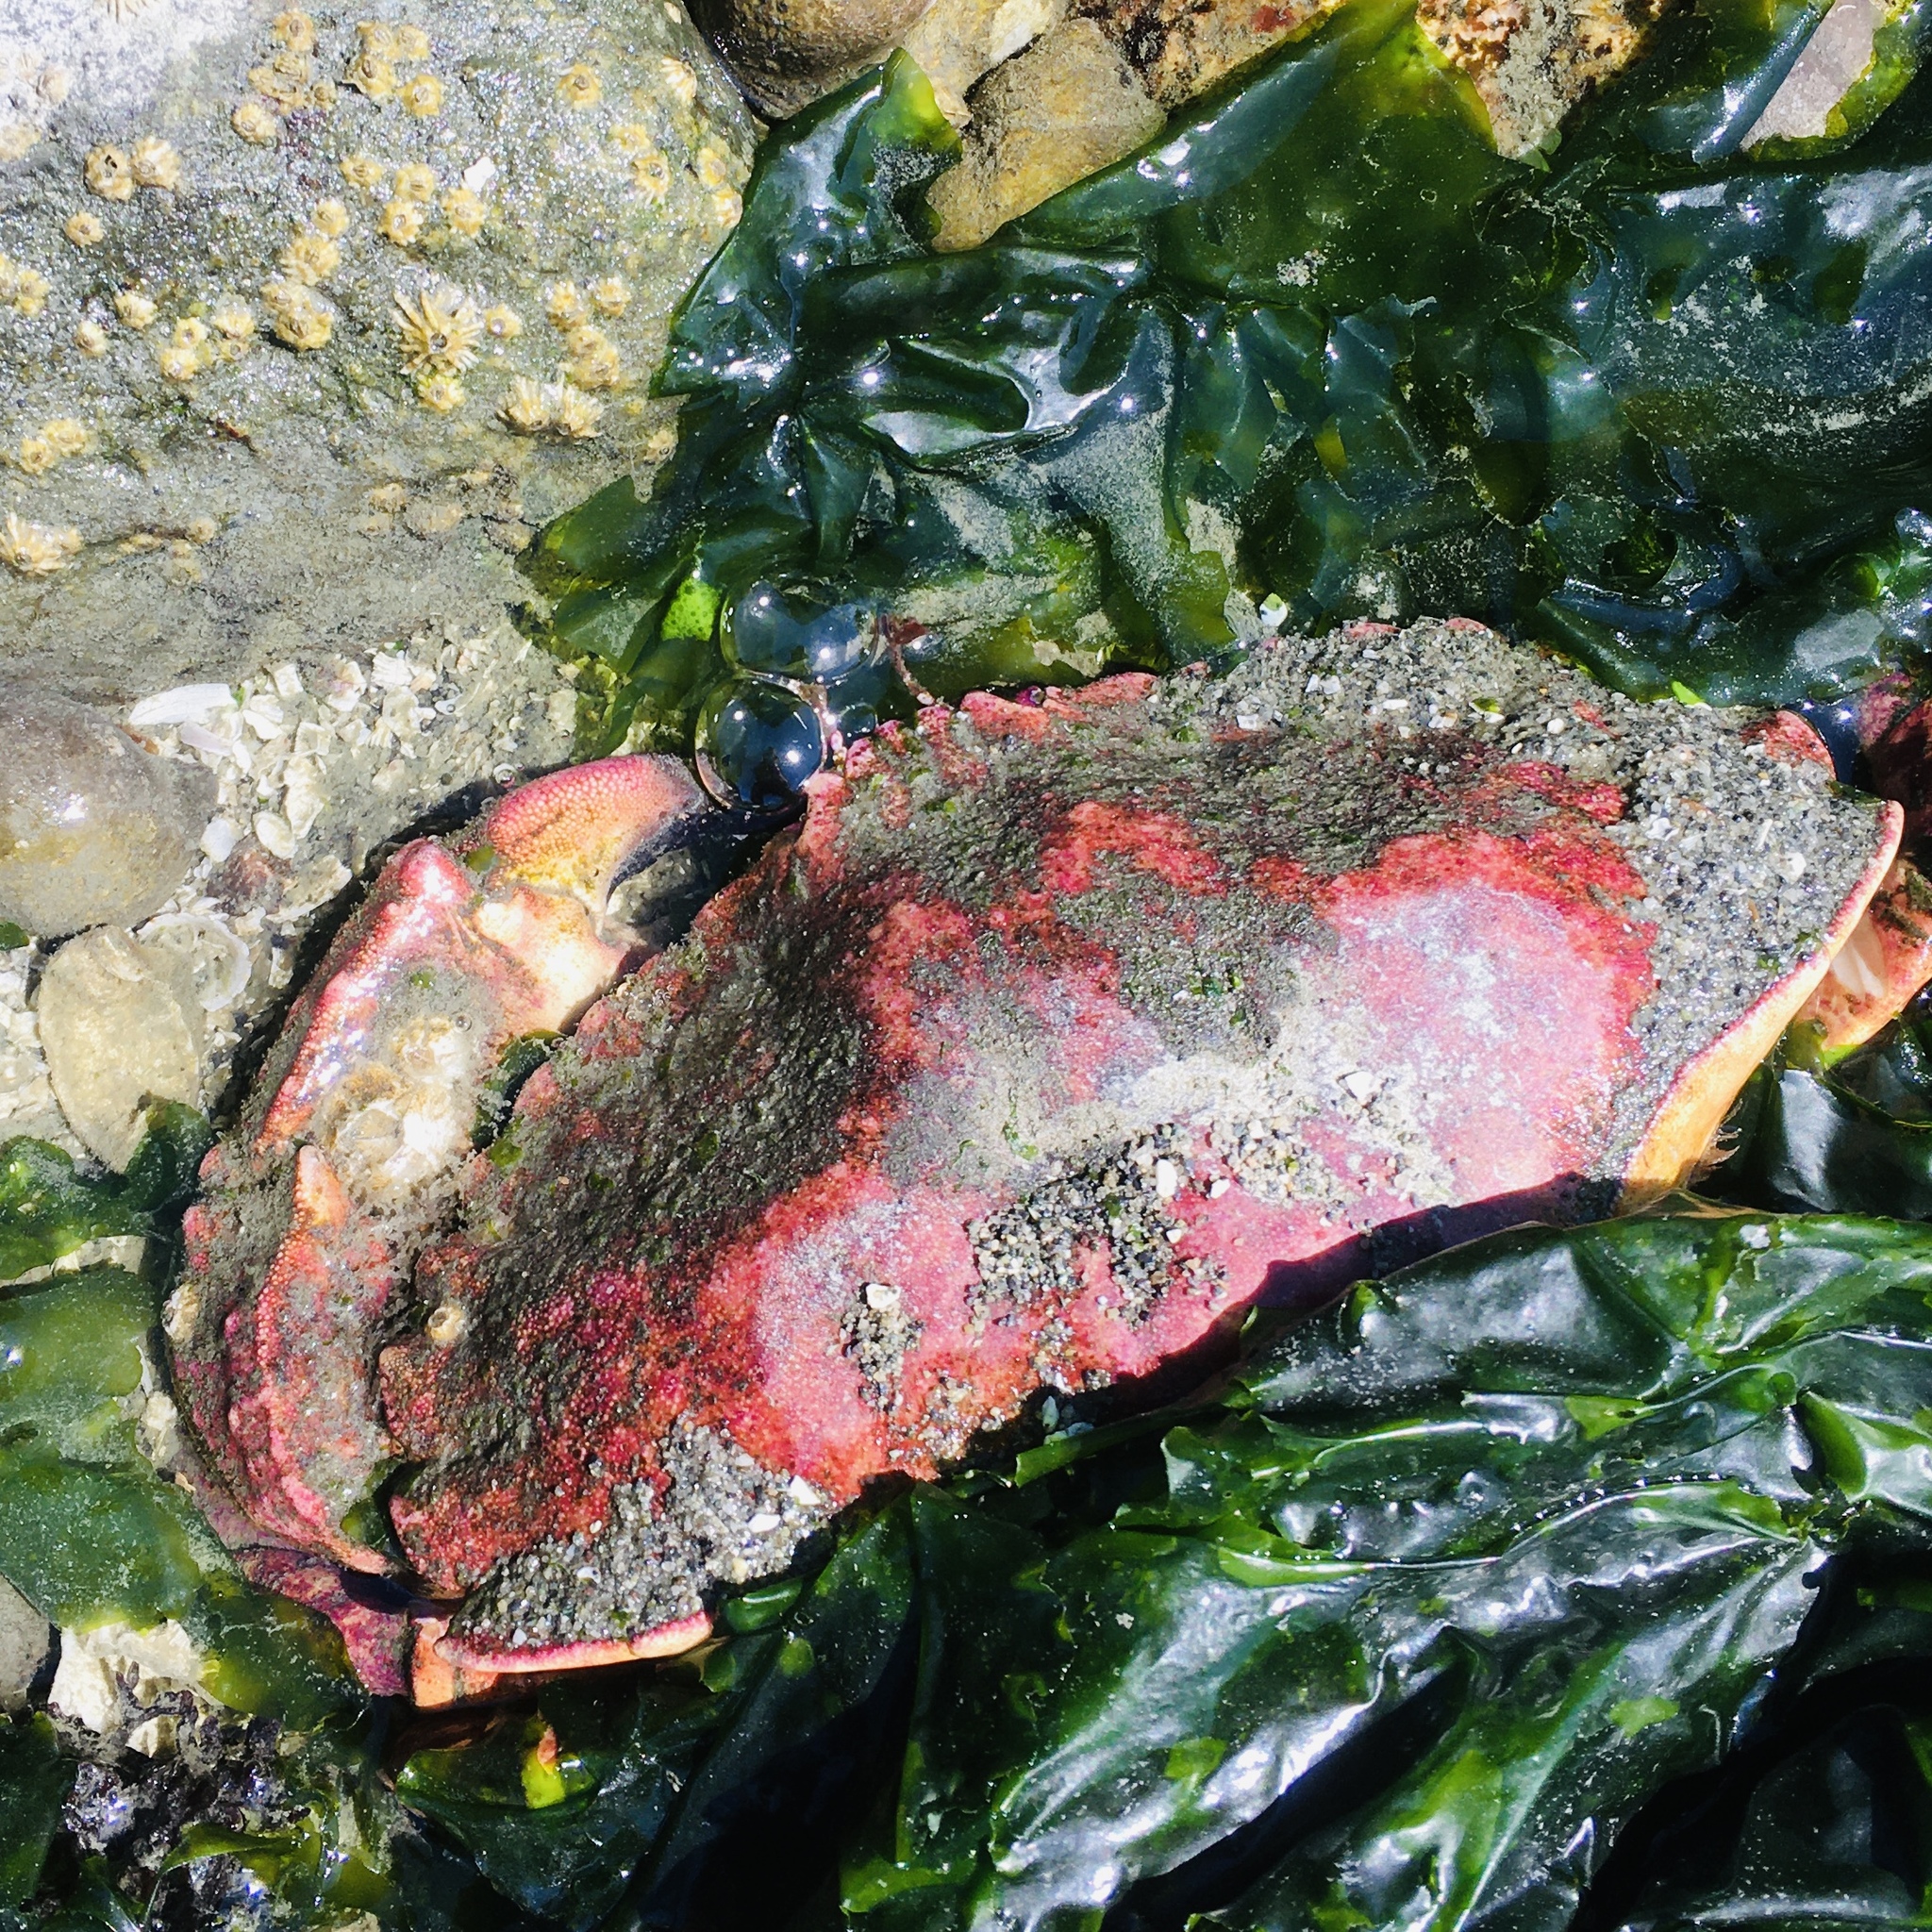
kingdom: Animalia
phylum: Arthropoda
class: Malacostraca
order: Decapoda
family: Cancridae
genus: Cancer
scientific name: Cancer productus
